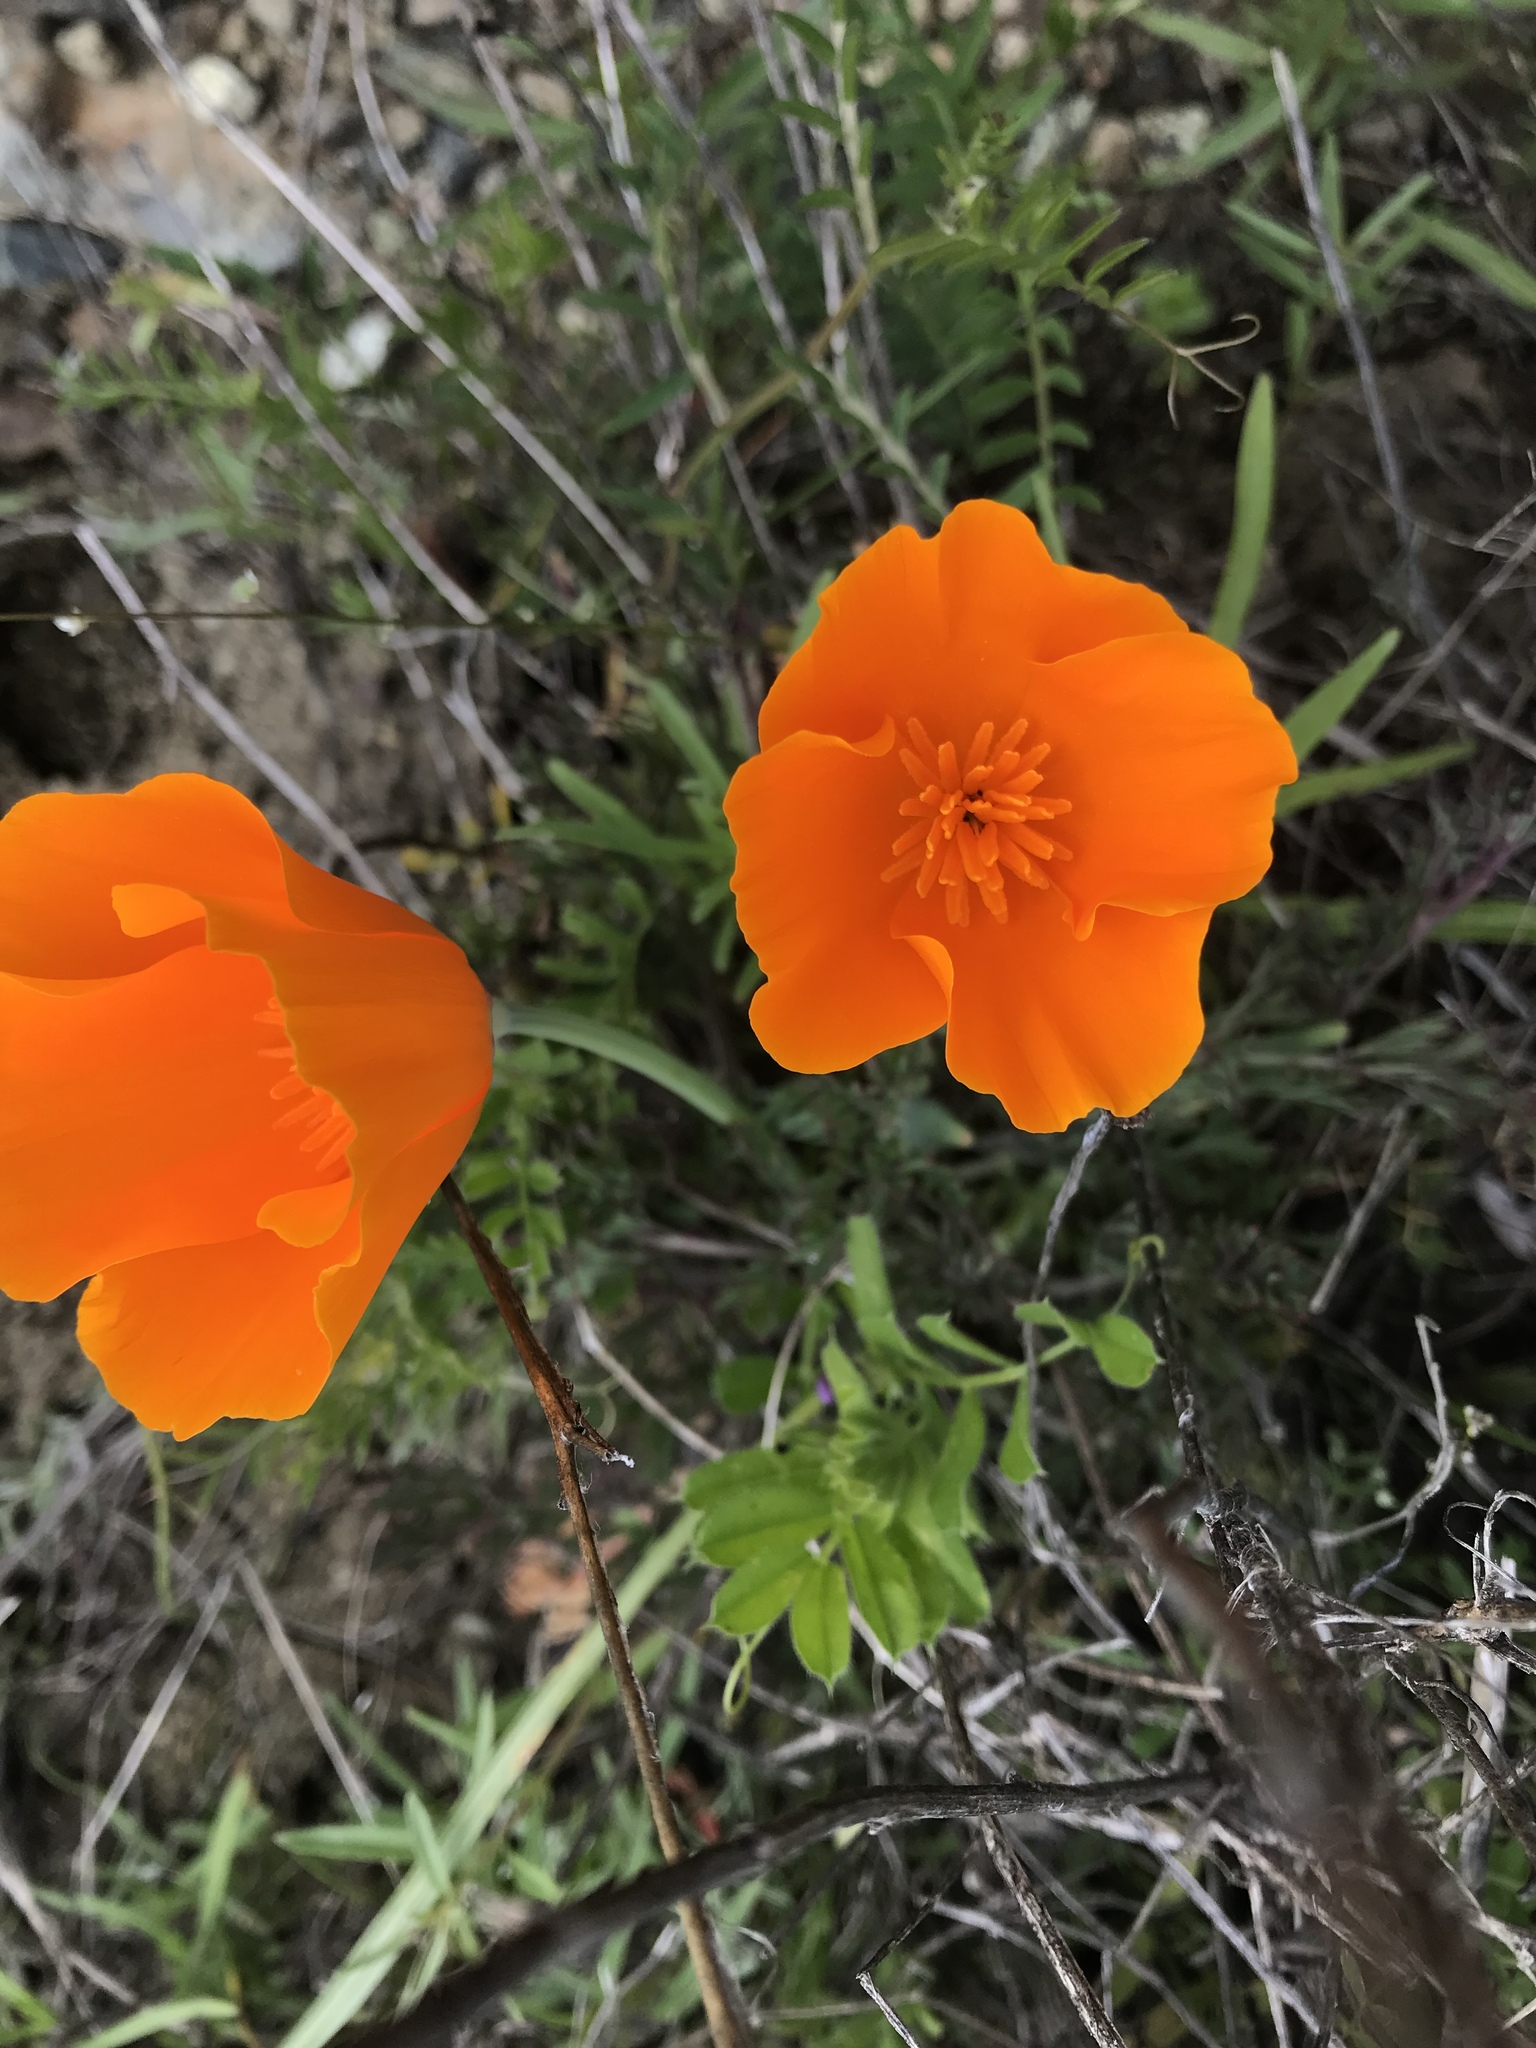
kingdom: Plantae
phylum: Tracheophyta
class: Magnoliopsida
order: Ranunculales
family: Papaveraceae
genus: Eschscholzia
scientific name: Eschscholzia californica
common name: California poppy
